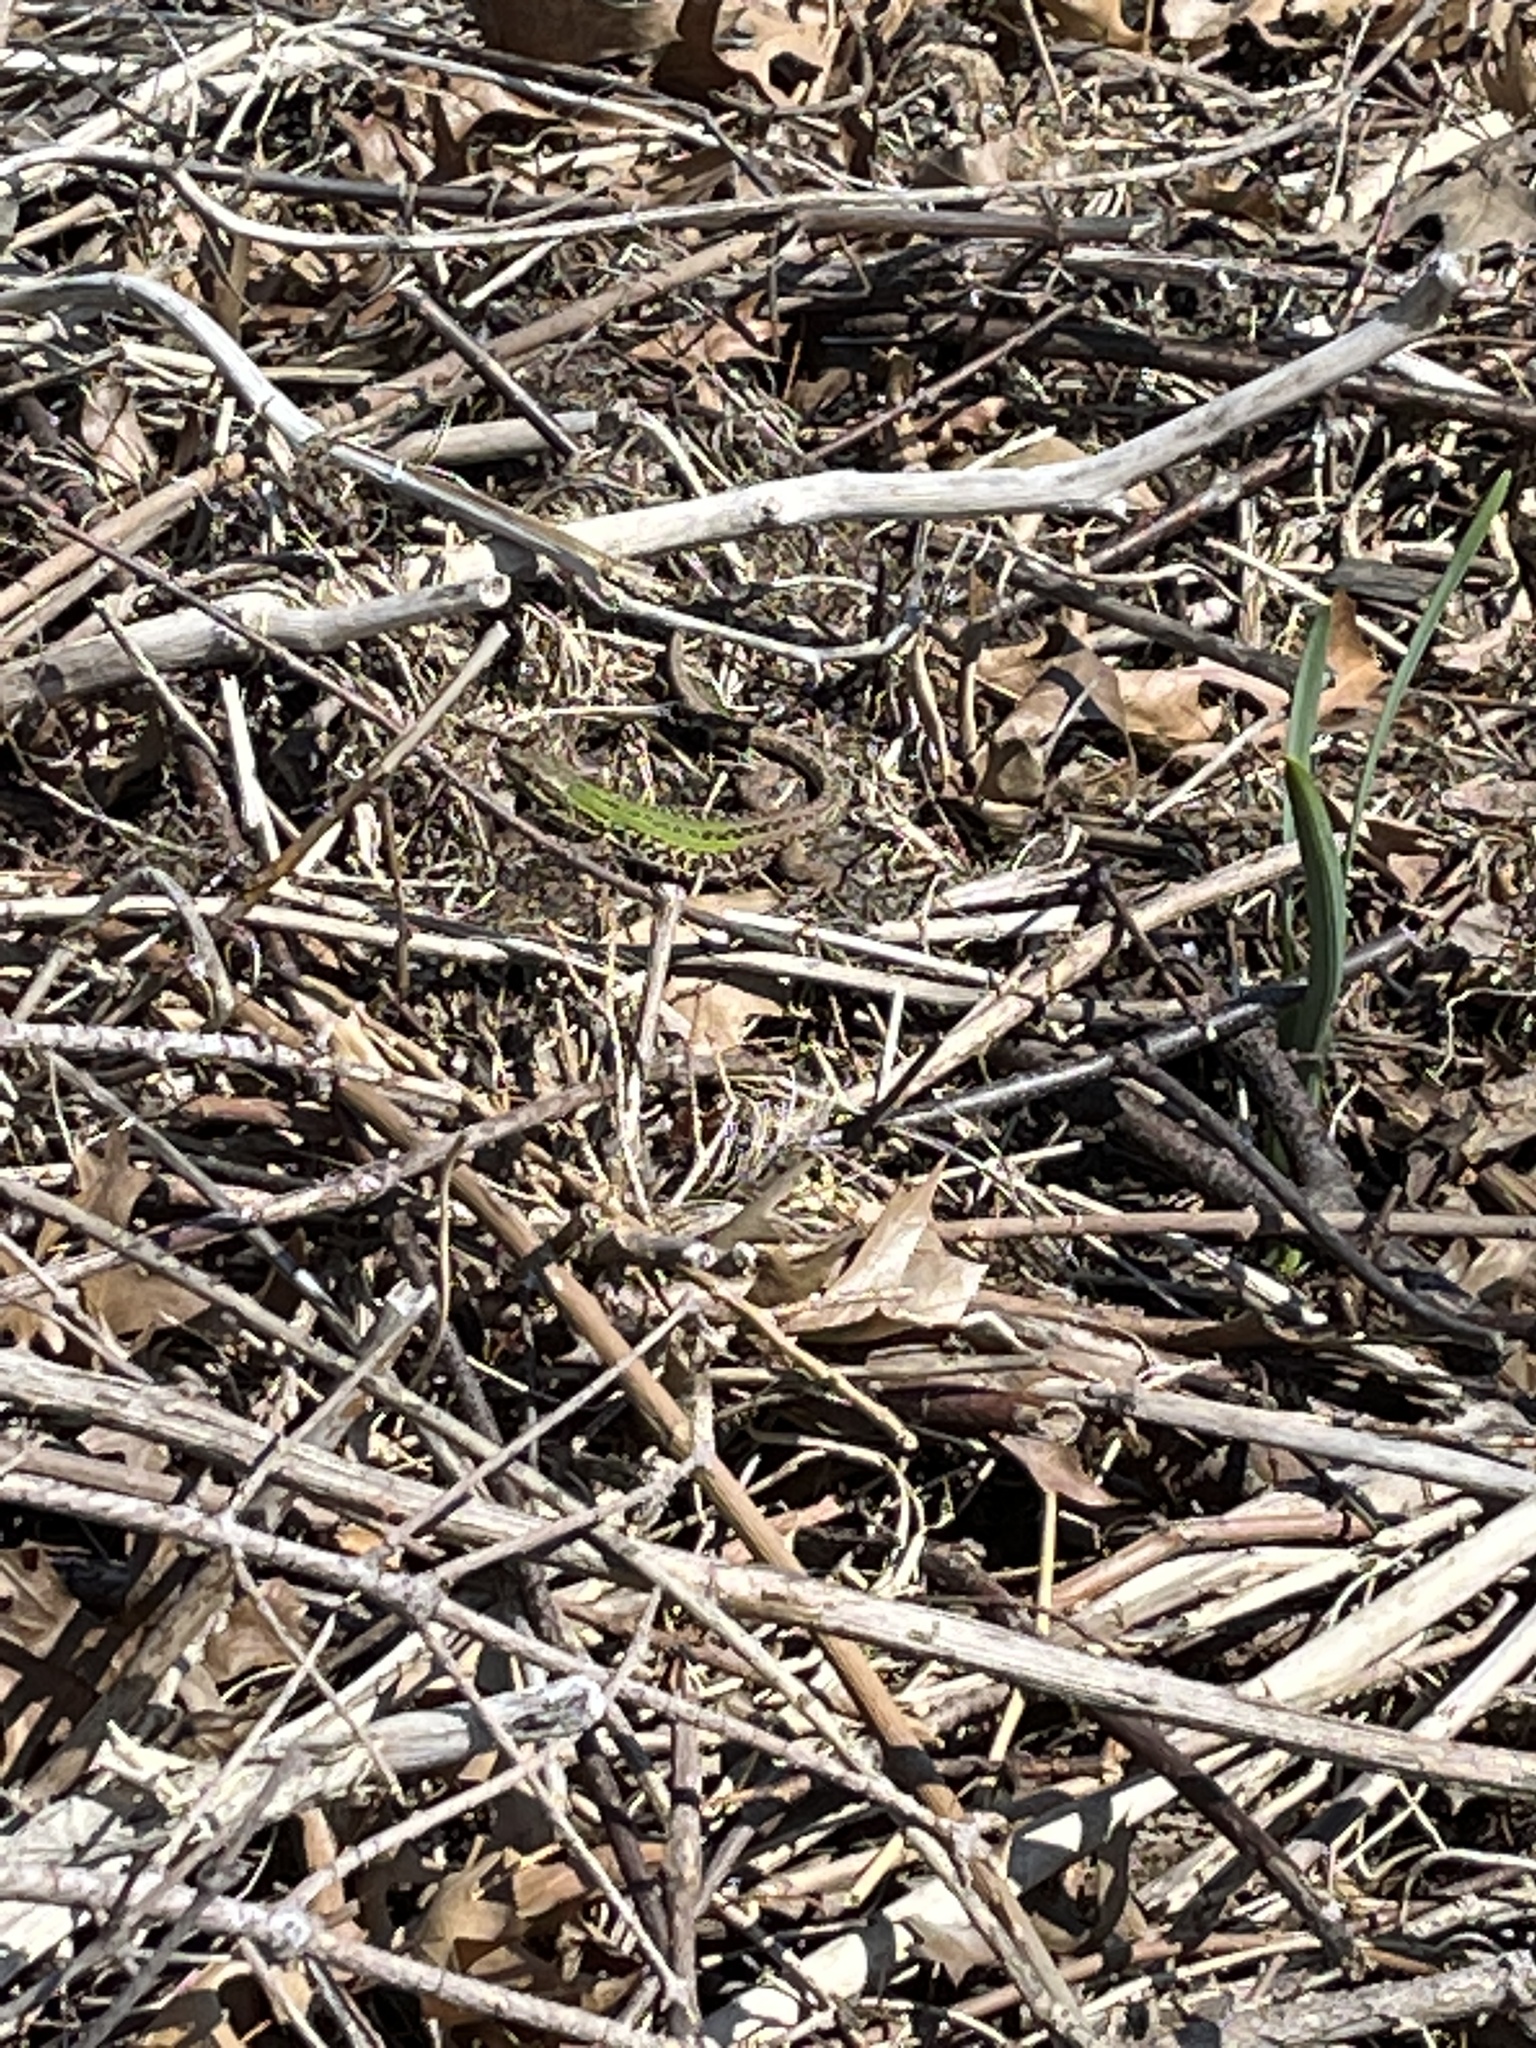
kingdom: Animalia
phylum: Chordata
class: Squamata
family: Lacertidae
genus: Podarcis
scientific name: Podarcis siculus
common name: Italian wall lizard
